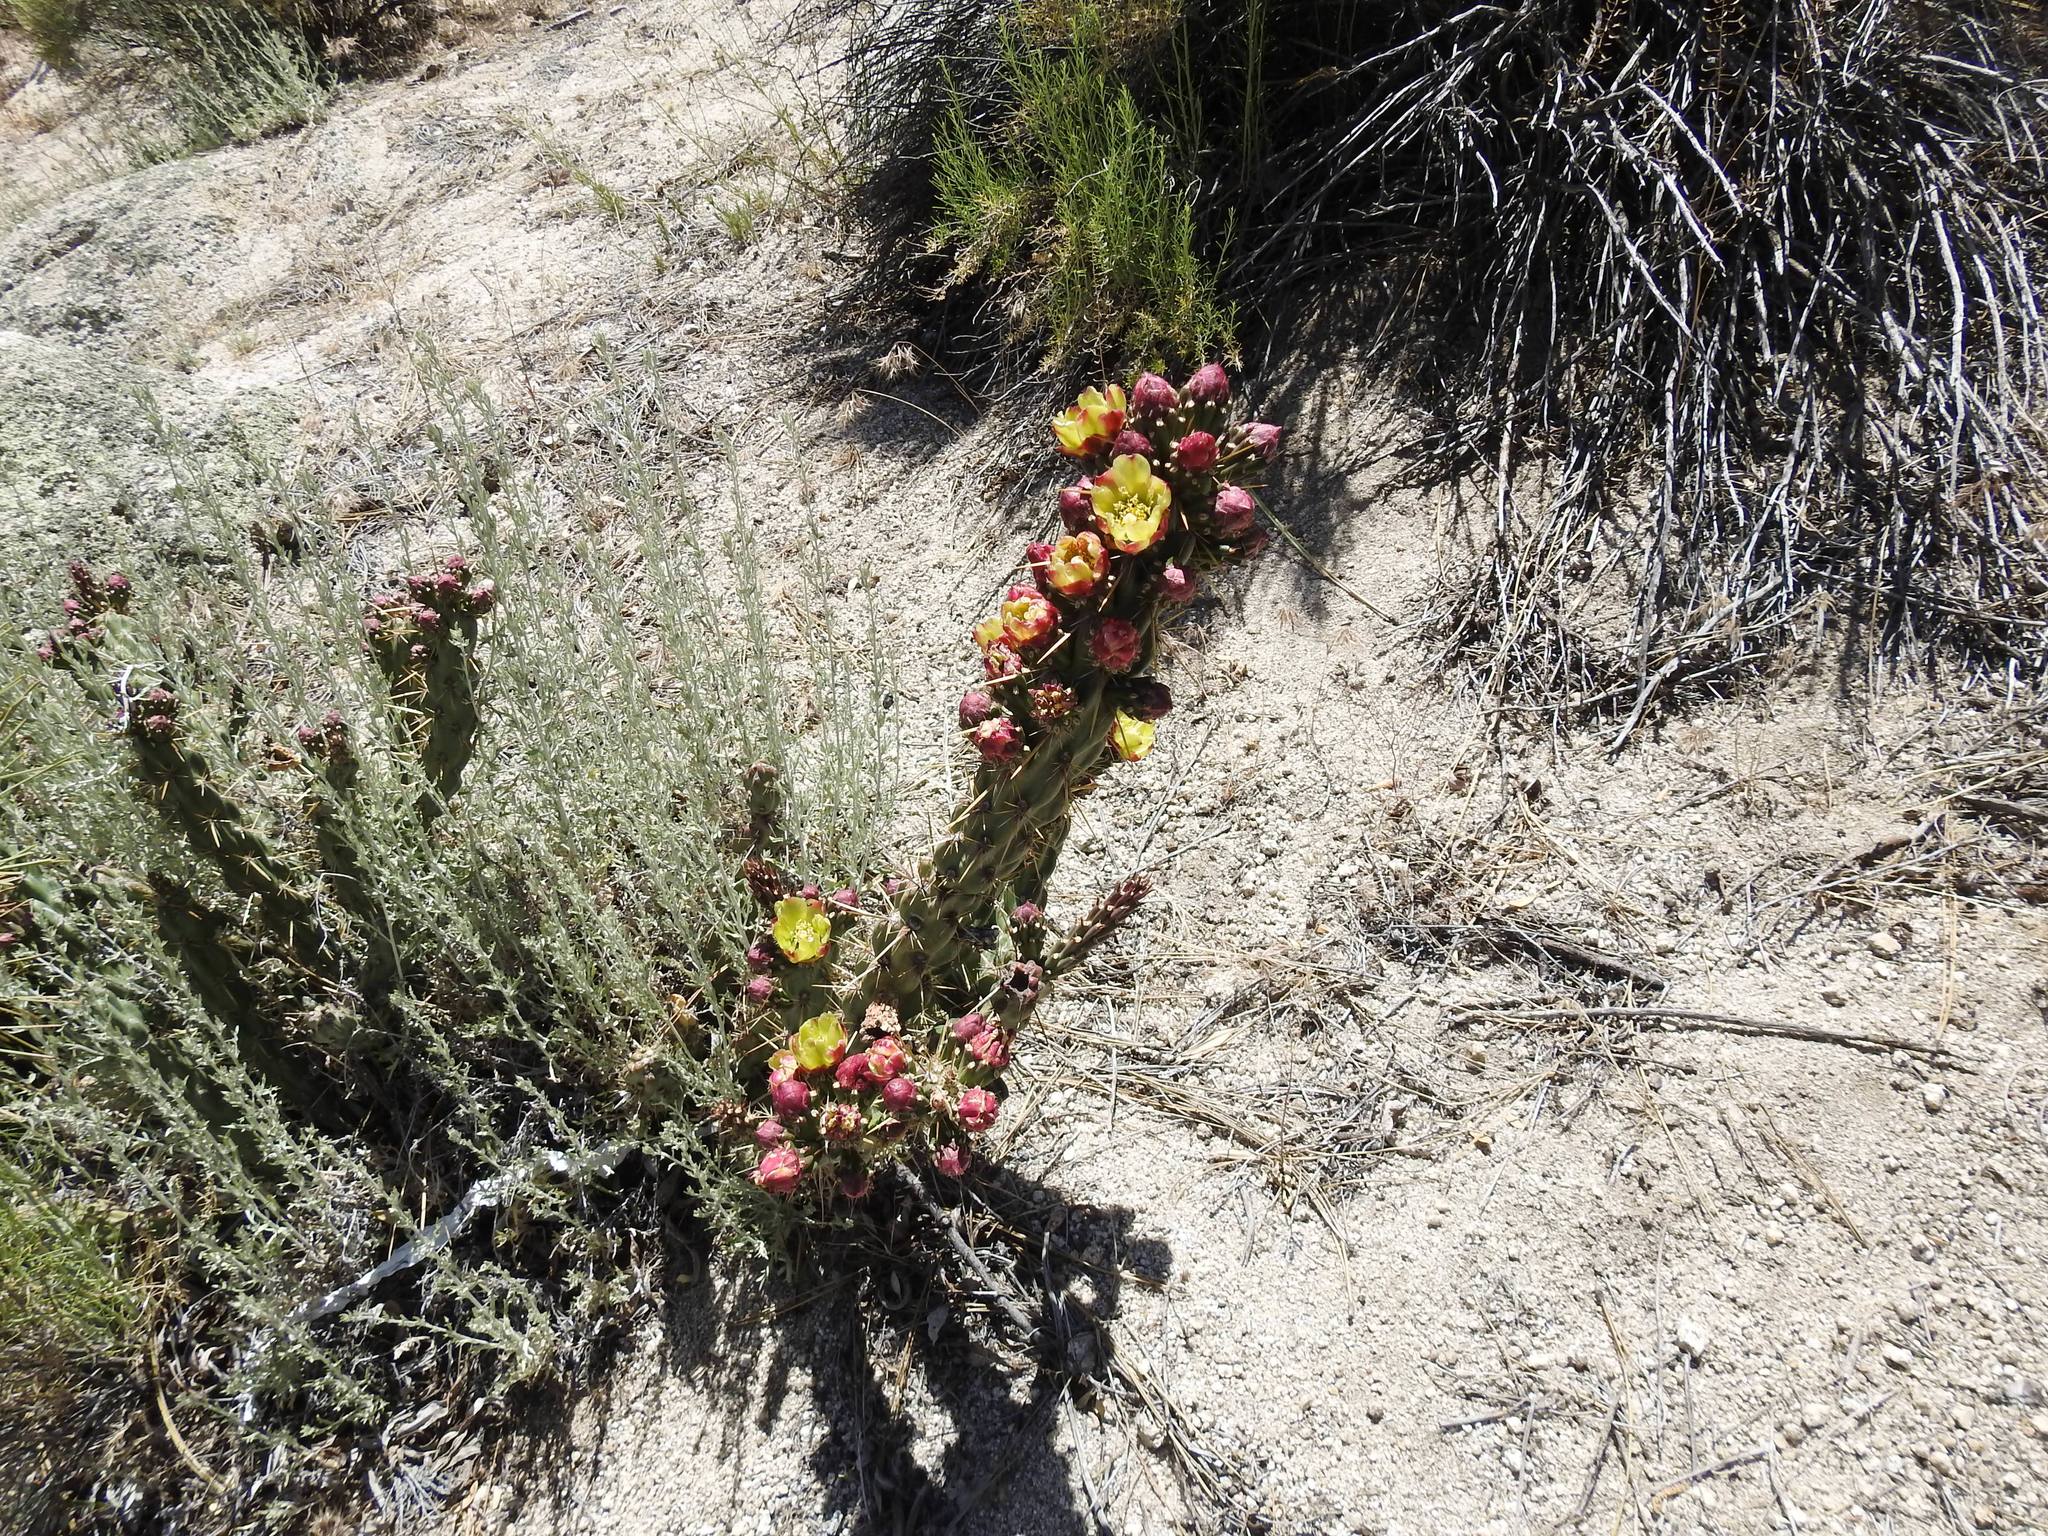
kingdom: Plantae
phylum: Tracheophyta
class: Magnoliopsida
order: Caryophyllales
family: Cactaceae
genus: Cylindropuntia
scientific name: Cylindropuntia bernardina
